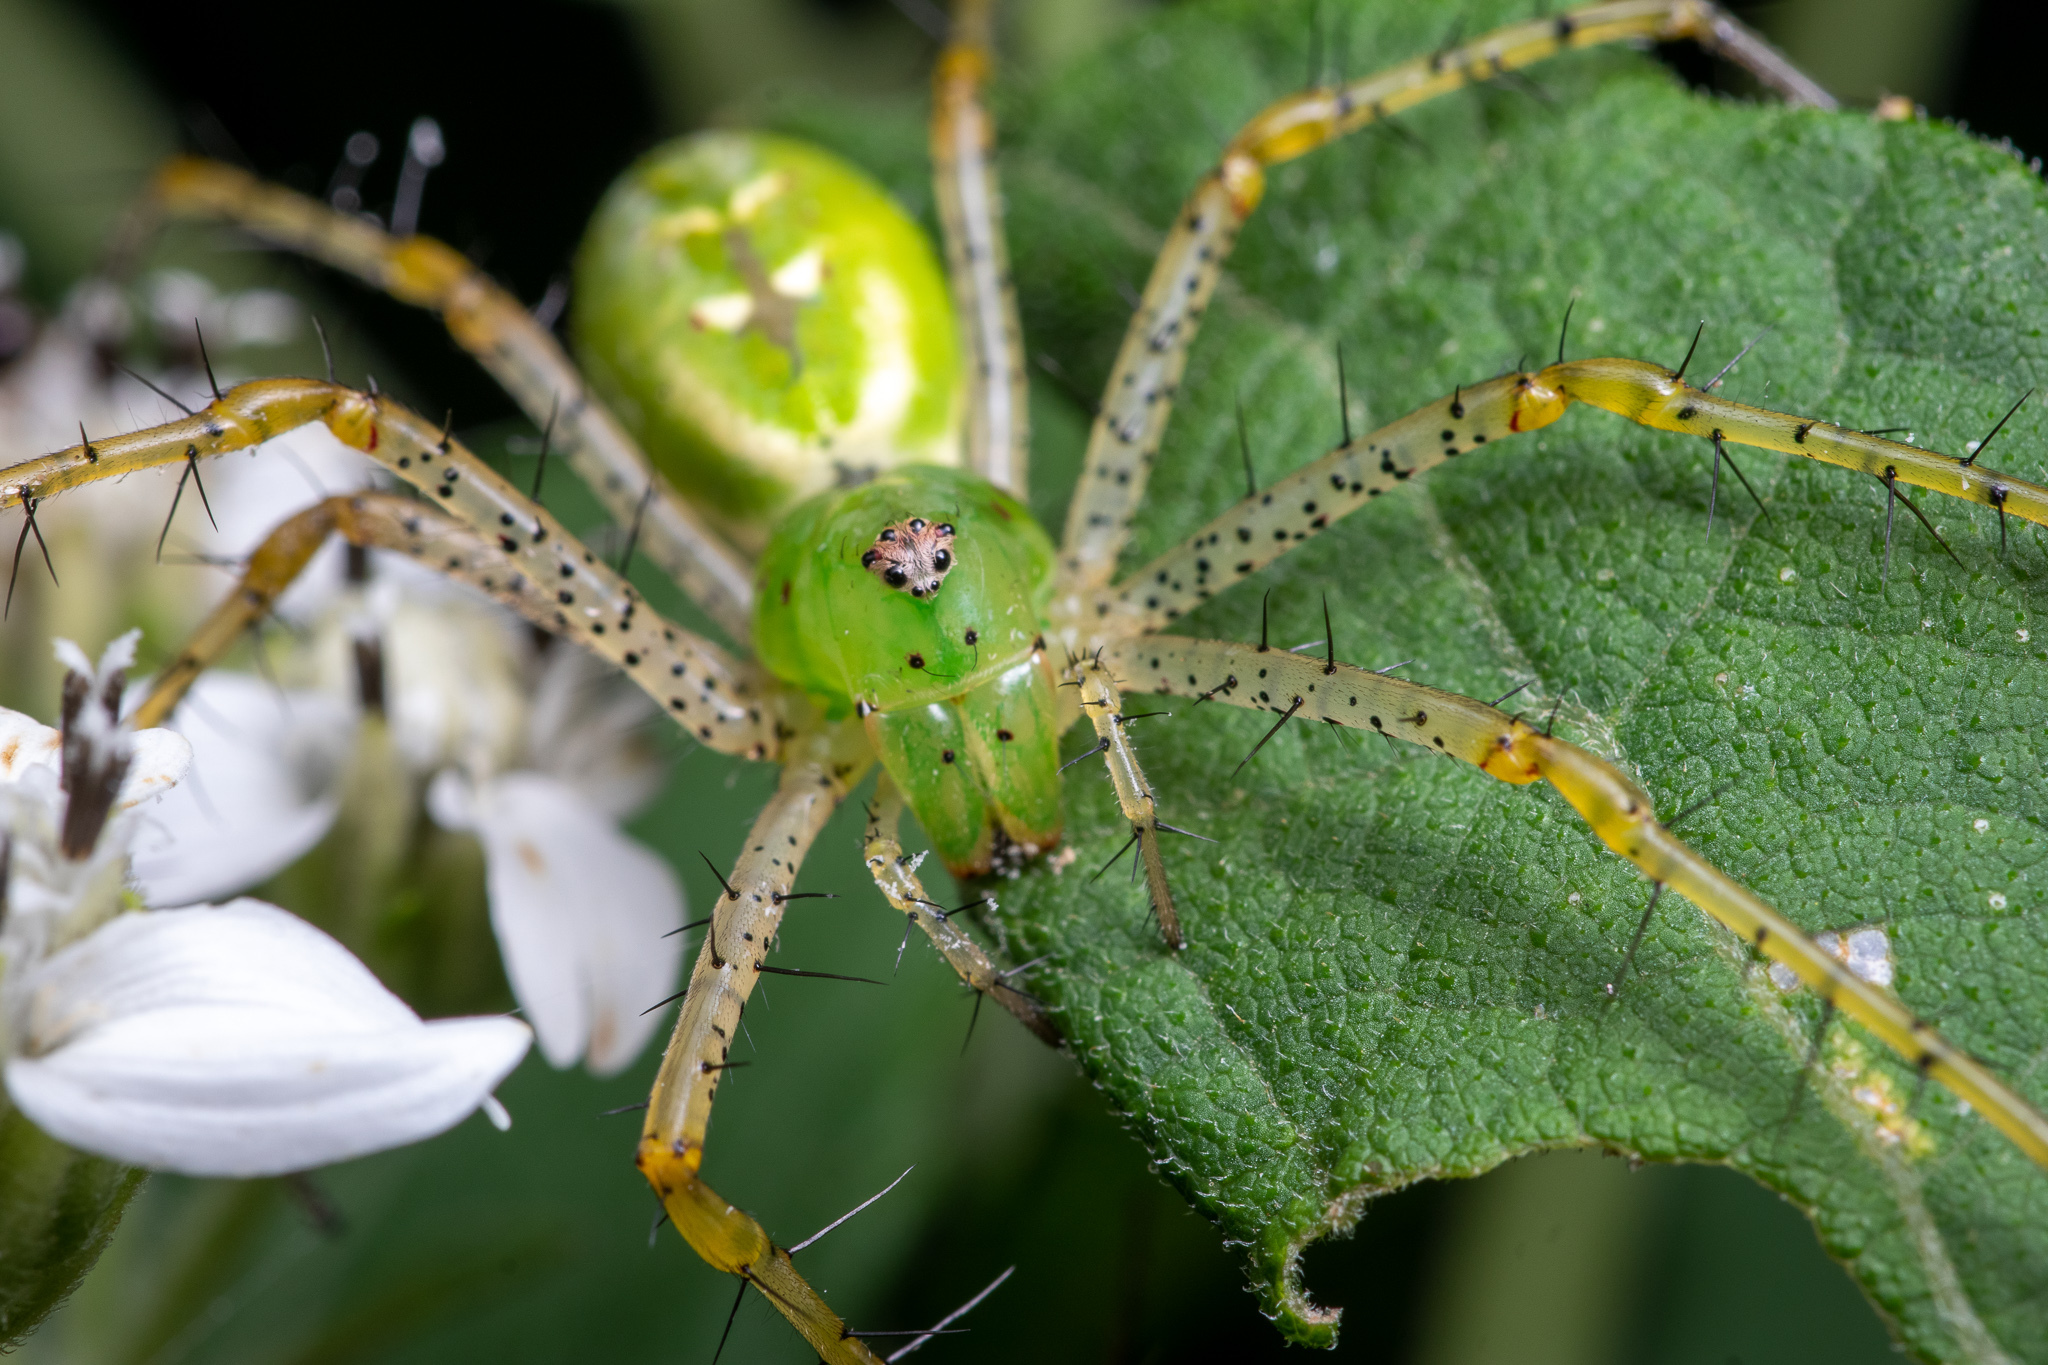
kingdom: Animalia
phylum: Arthropoda
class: Arachnida
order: Araneae
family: Oxyopidae
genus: Peucetia
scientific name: Peucetia viridans
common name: Lynx spiders
